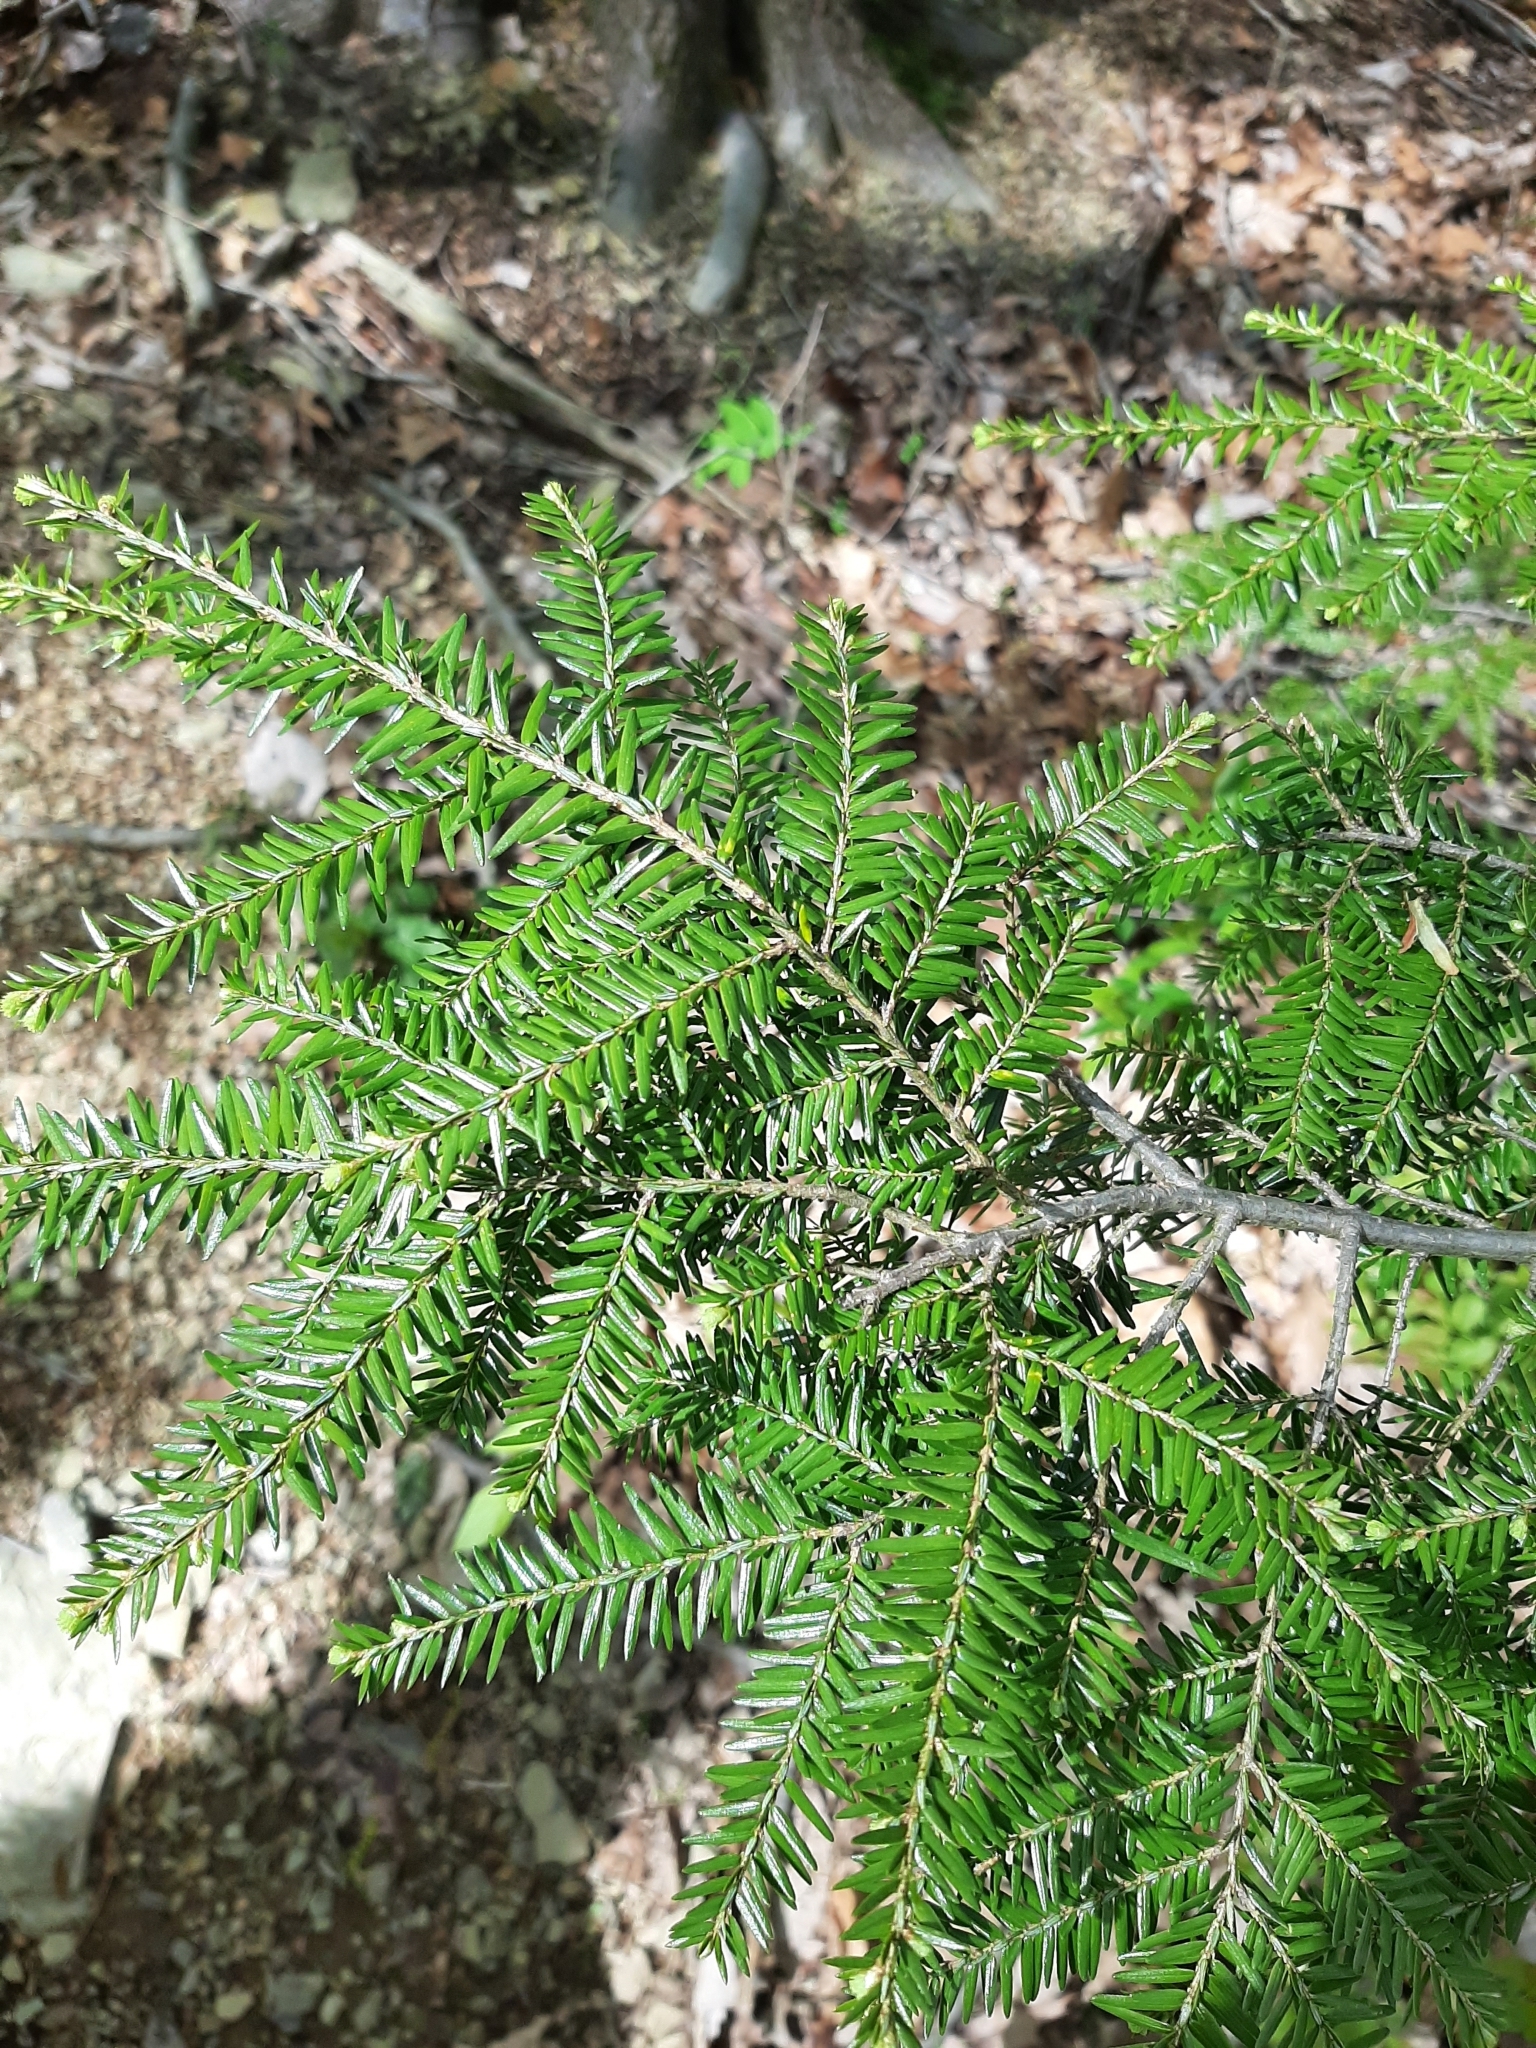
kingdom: Plantae
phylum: Tracheophyta
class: Pinopsida
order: Pinales
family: Pinaceae
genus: Tsuga
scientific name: Tsuga canadensis
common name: Eastern hemlock
